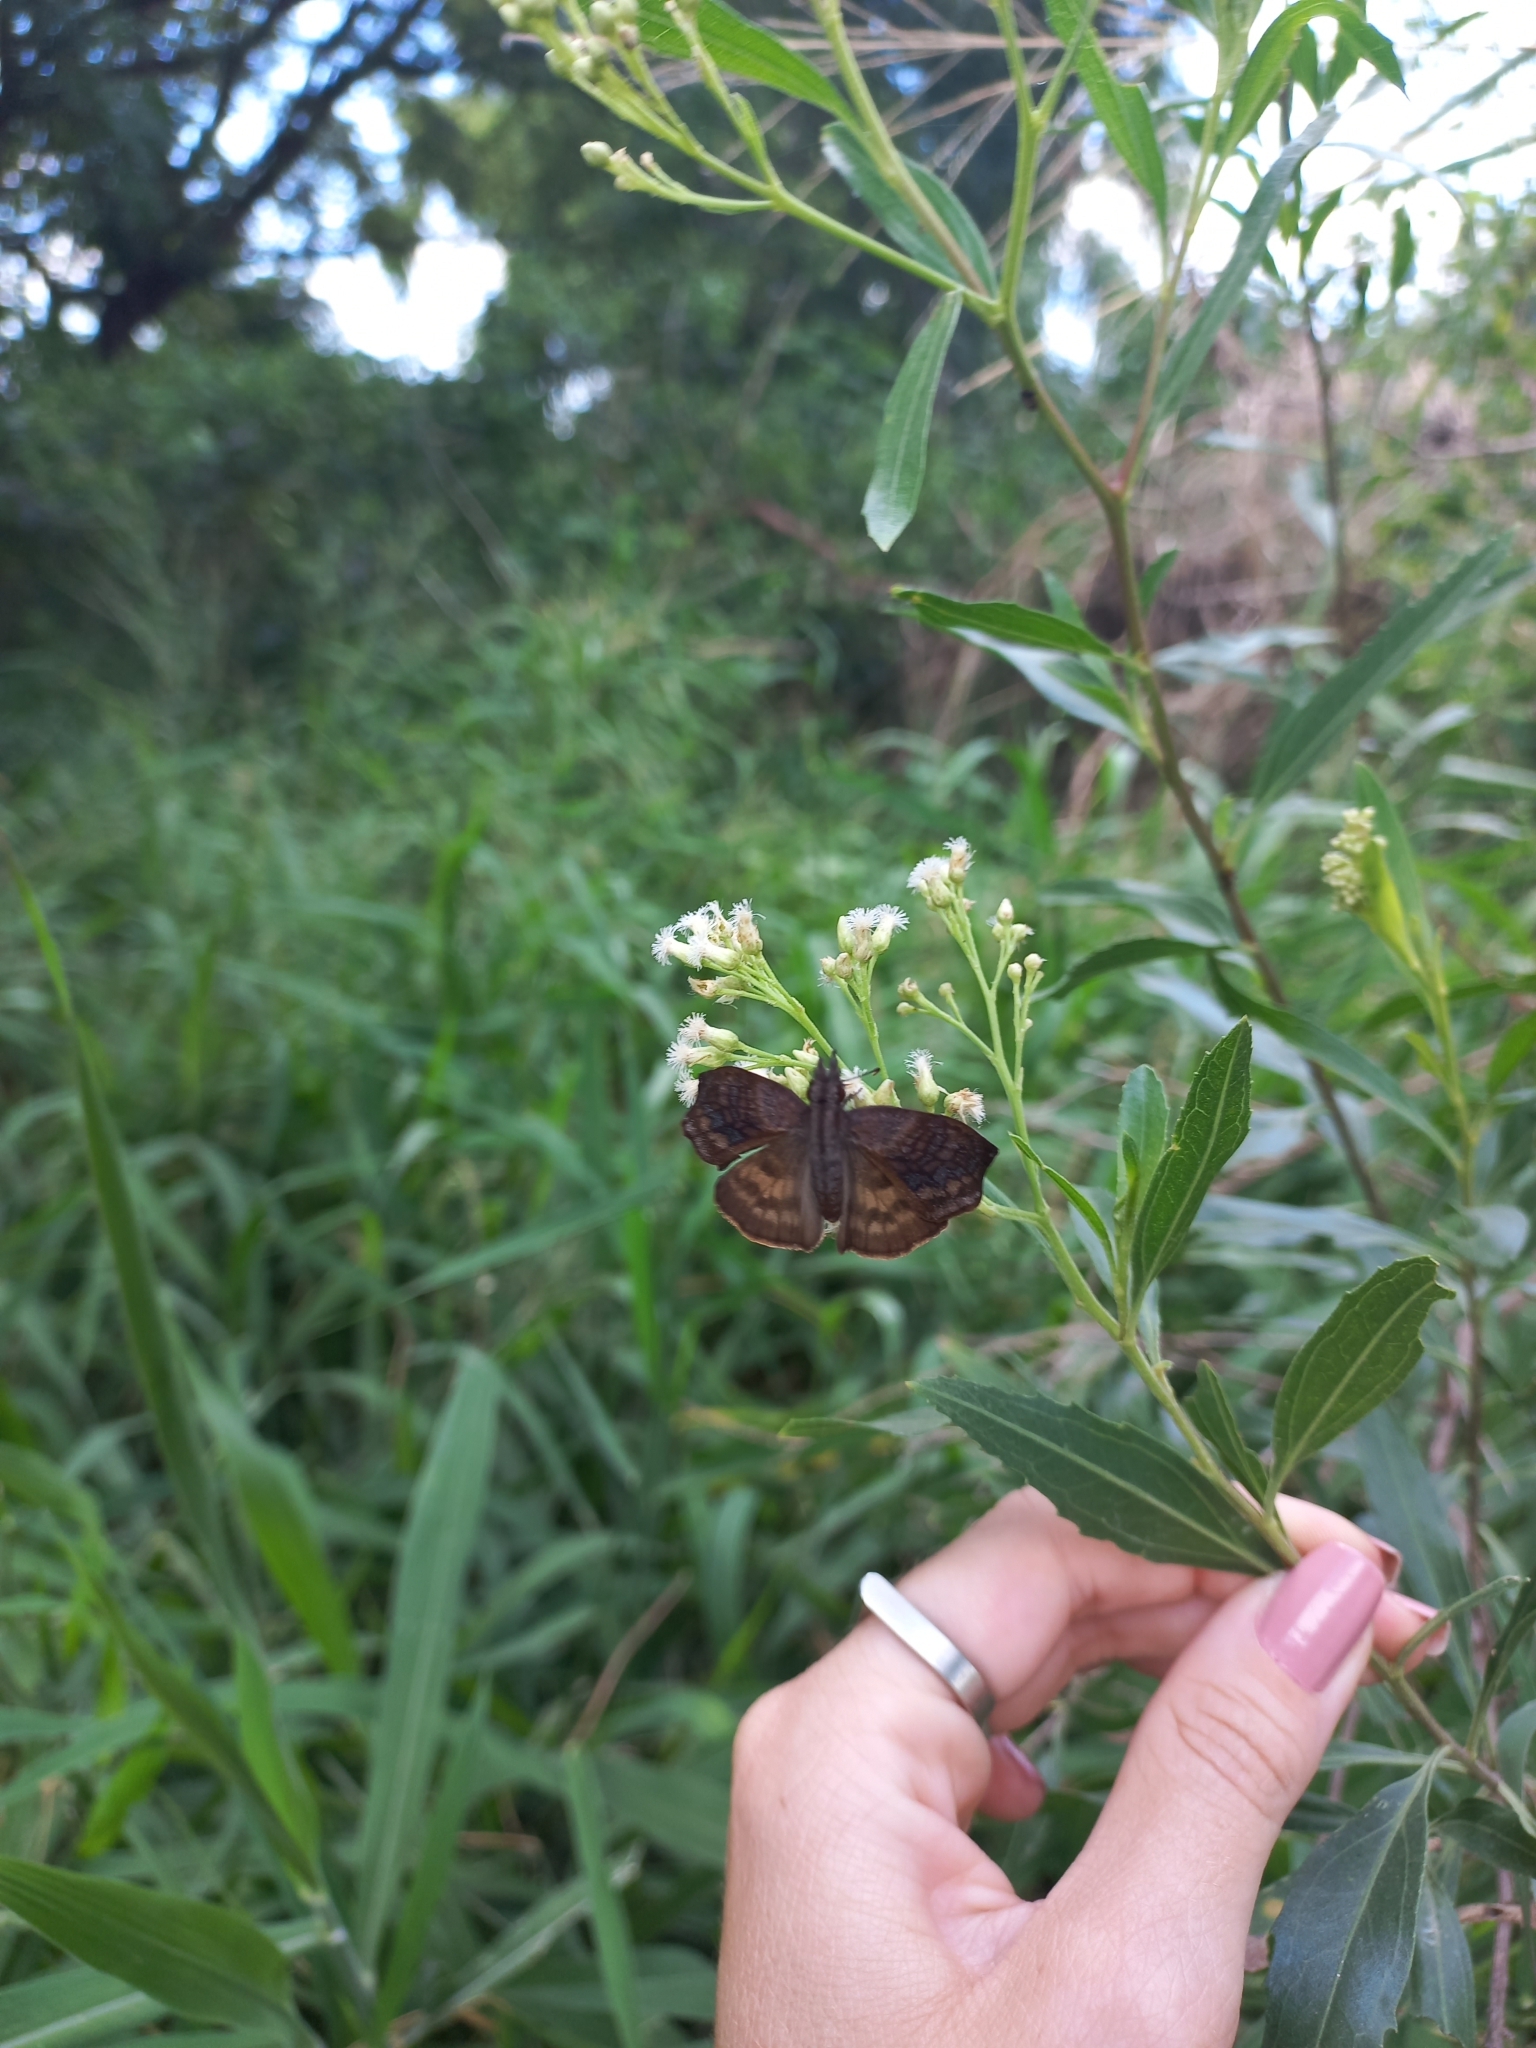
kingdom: Animalia
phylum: Arthropoda
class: Insecta
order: Lepidoptera
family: Hesperiidae
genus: Theagenes
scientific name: Theagenes dichrous
